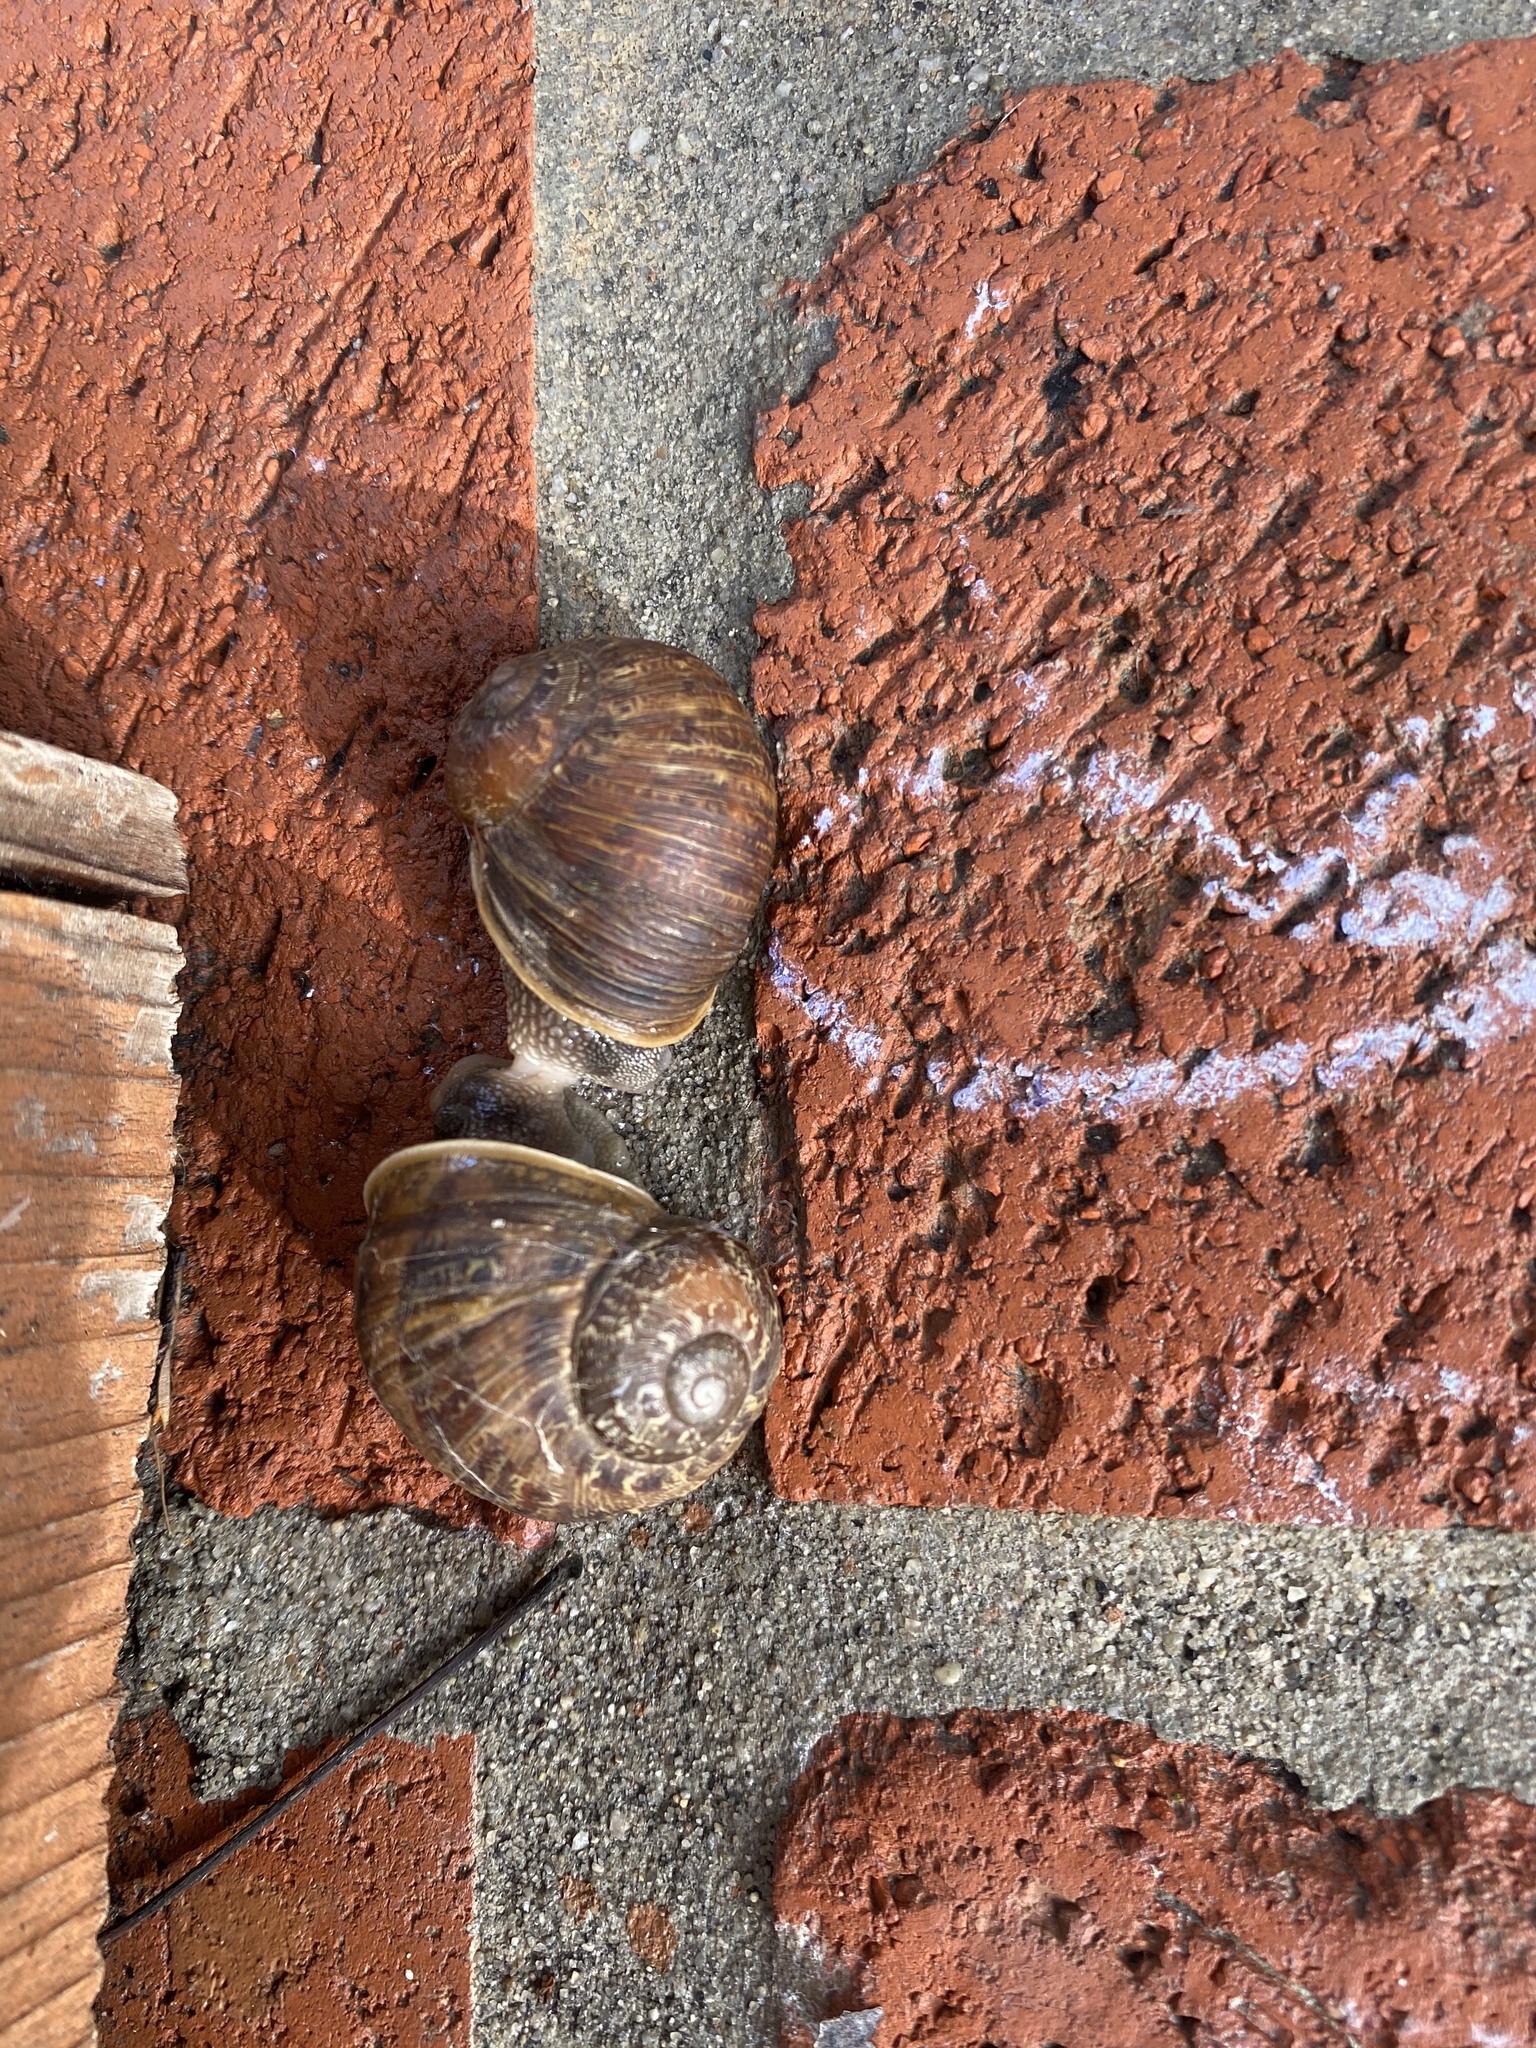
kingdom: Animalia
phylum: Mollusca
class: Gastropoda
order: Stylommatophora
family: Helicidae
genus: Cornu
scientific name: Cornu aspersum
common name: Brown garden snail
